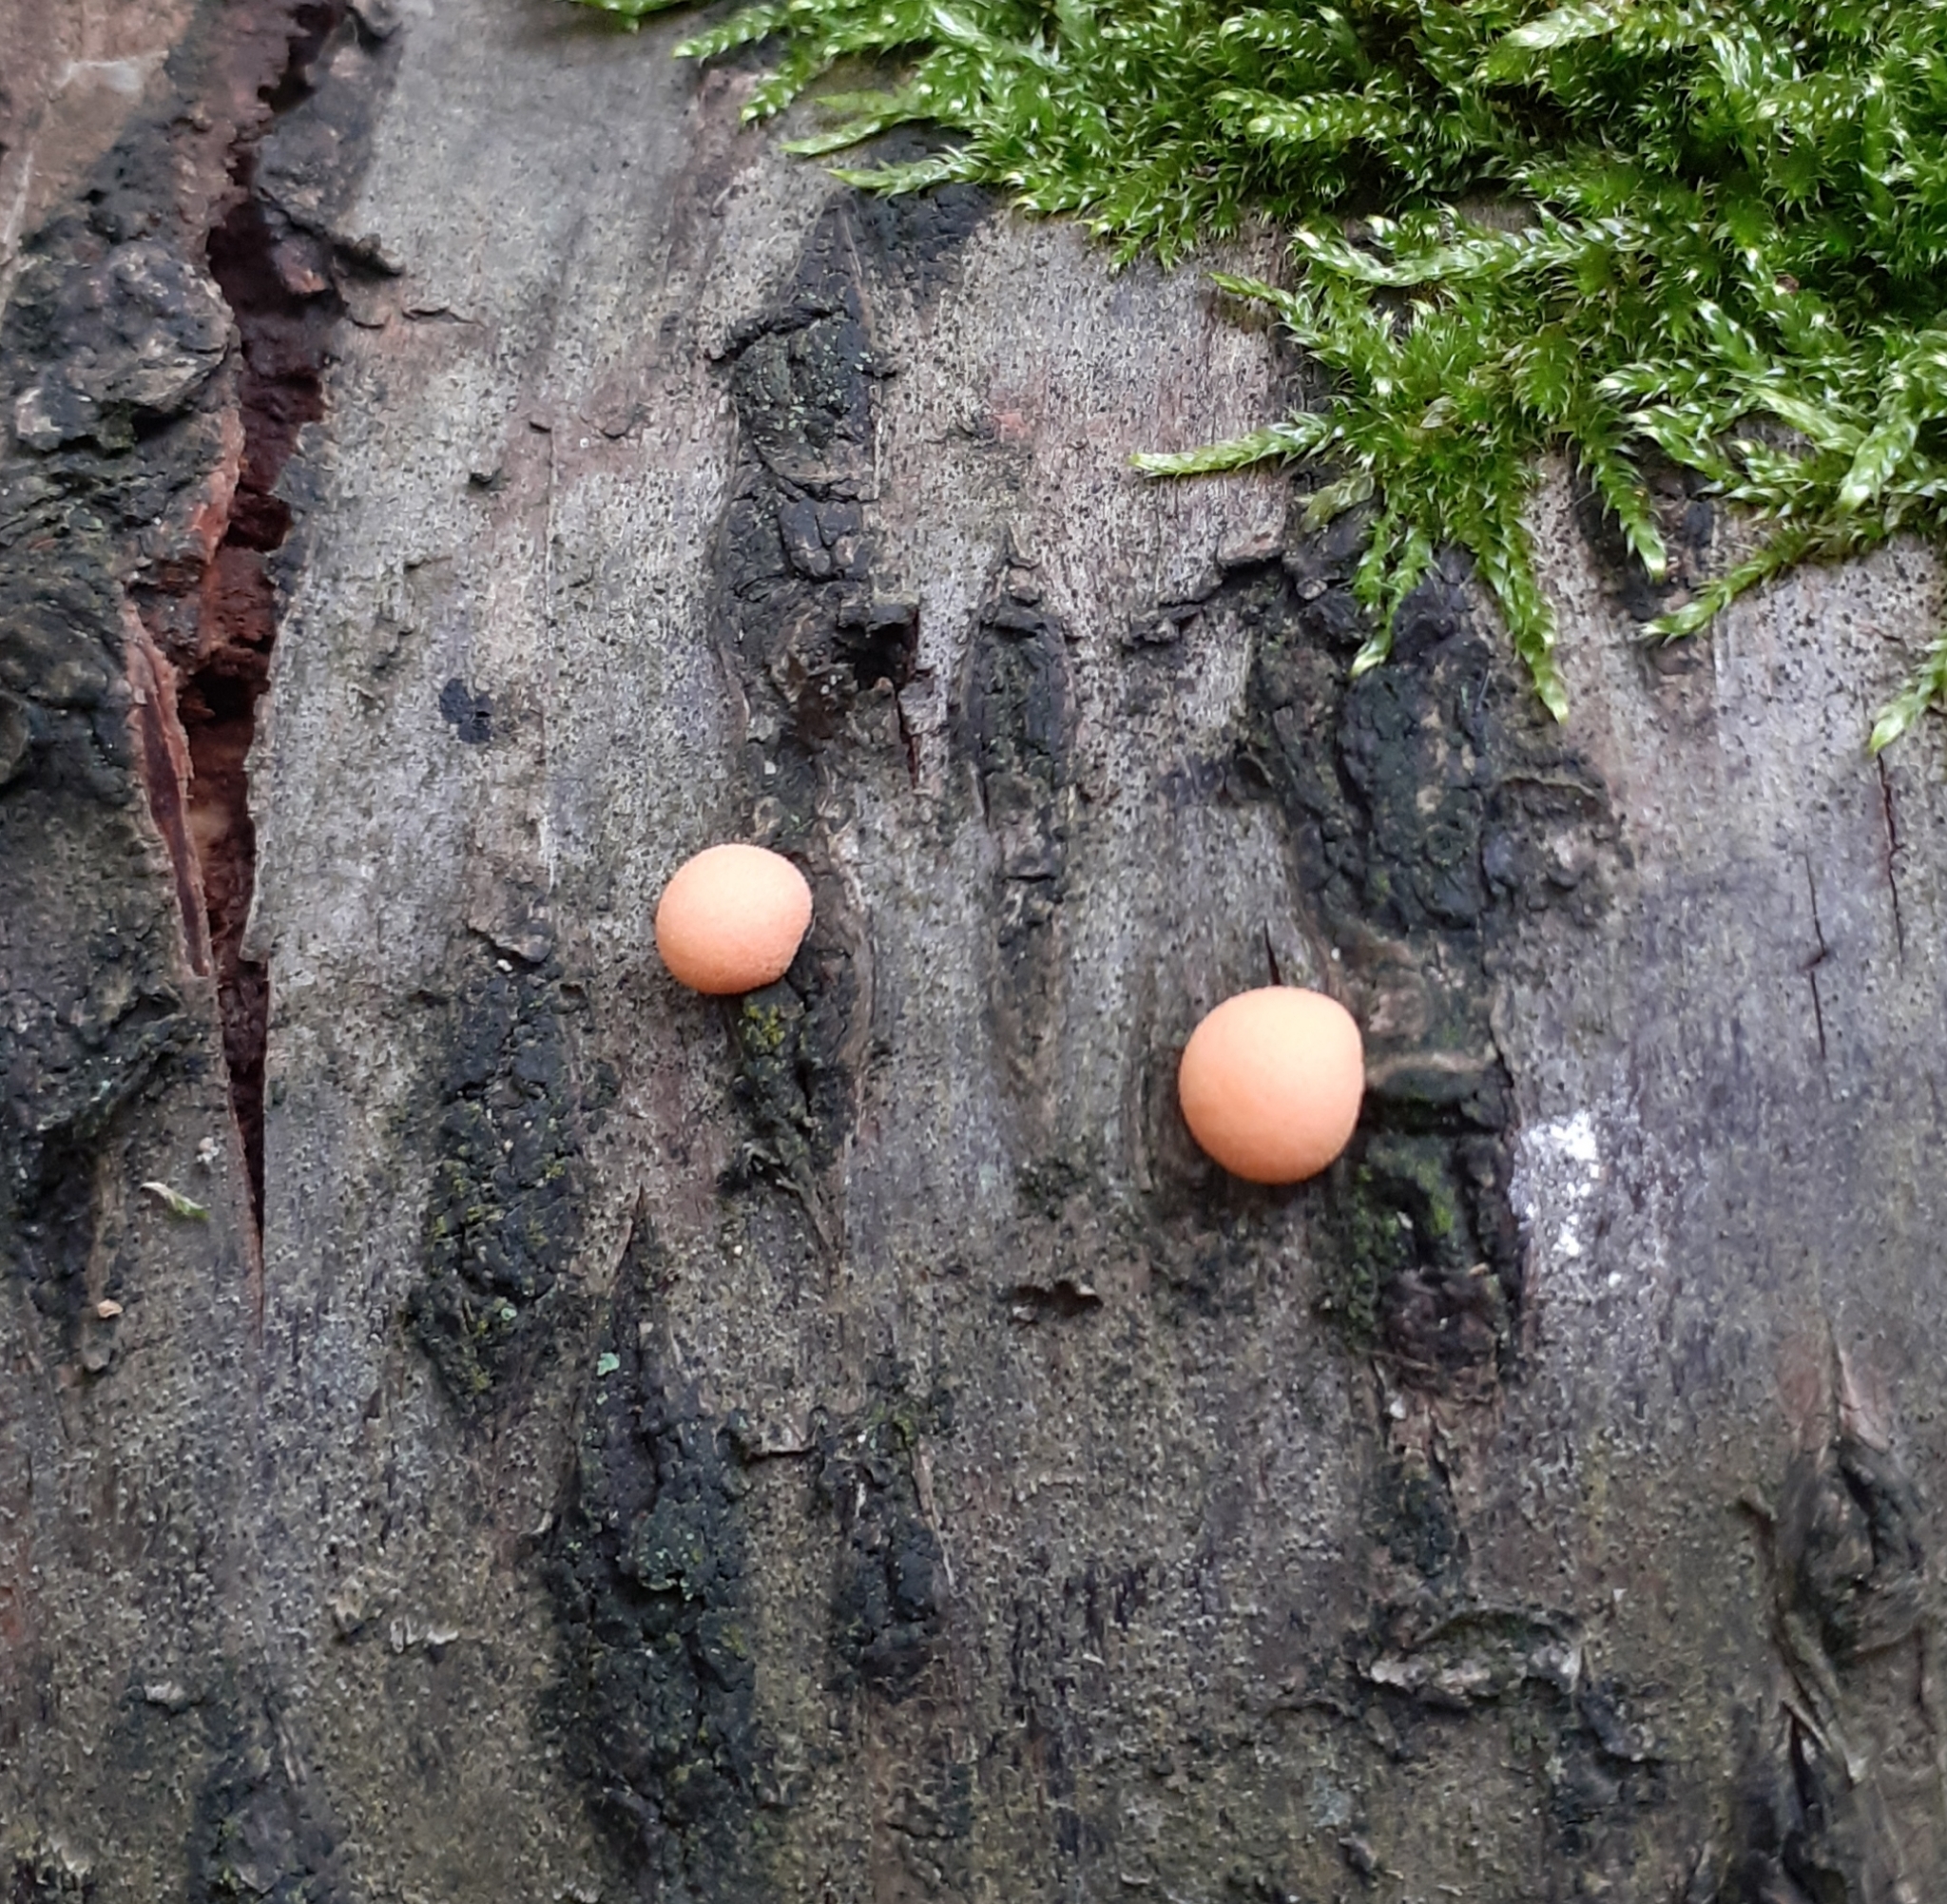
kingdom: Protozoa
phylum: Mycetozoa
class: Myxomycetes
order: Cribrariales
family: Tubiferaceae
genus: Lycogala
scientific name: Lycogala epidendrum
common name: Wolf's milk
